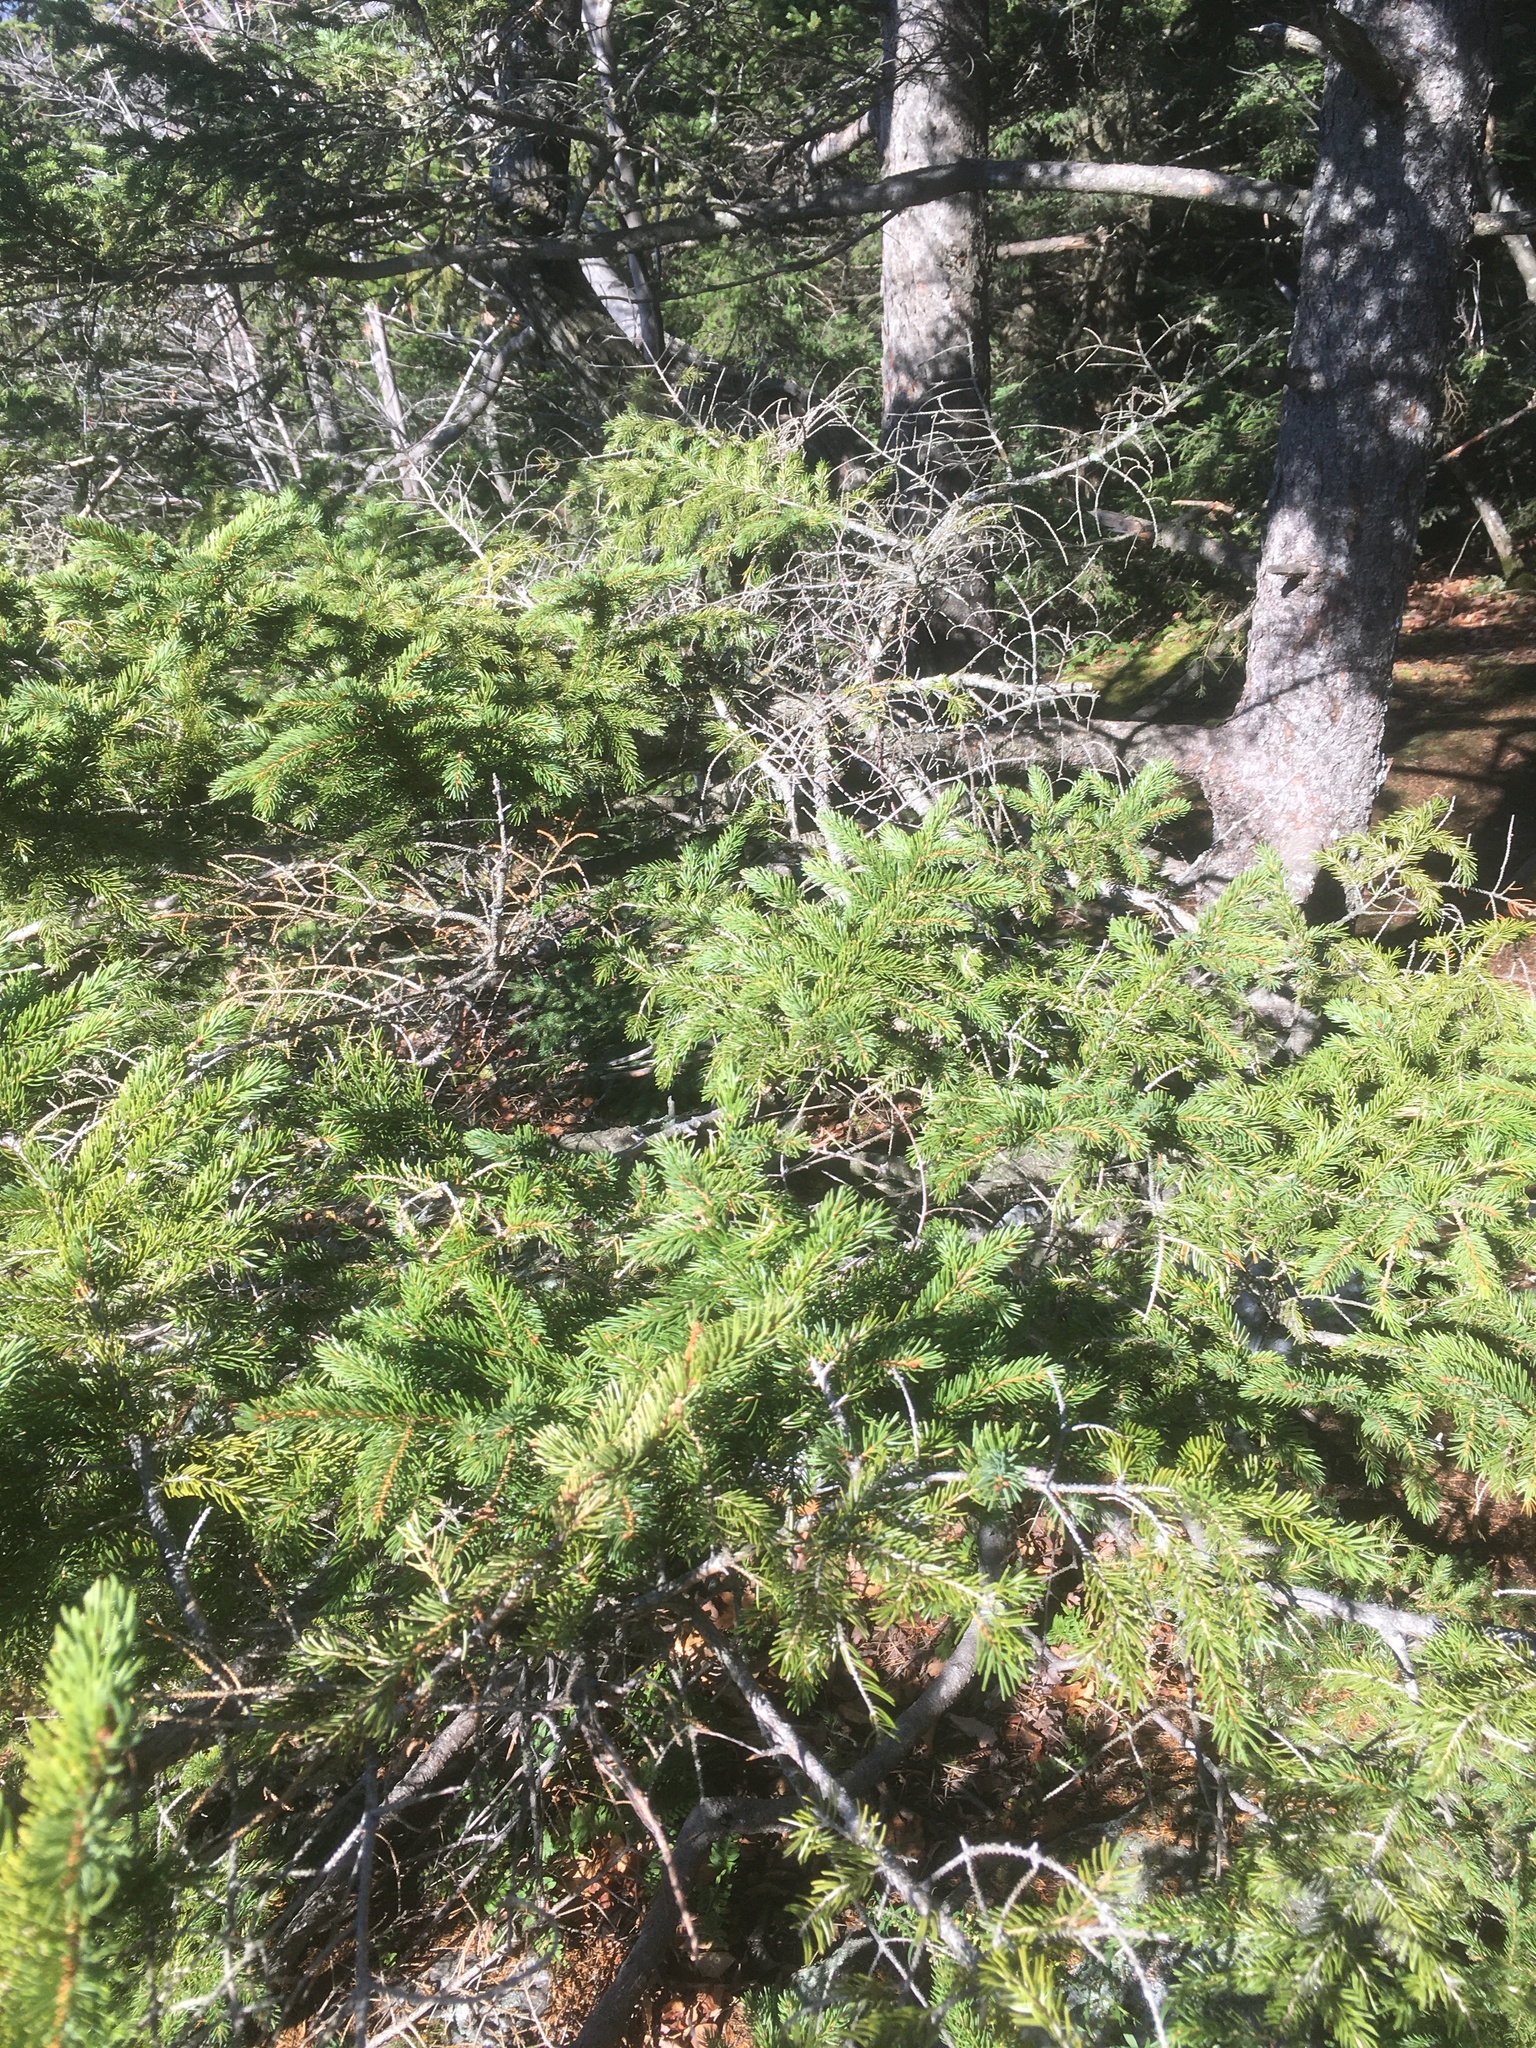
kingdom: Plantae
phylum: Tracheophyta
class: Pinopsida
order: Pinales
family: Pinaceae
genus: Picea
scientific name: Picea rubens
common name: Red spruce
